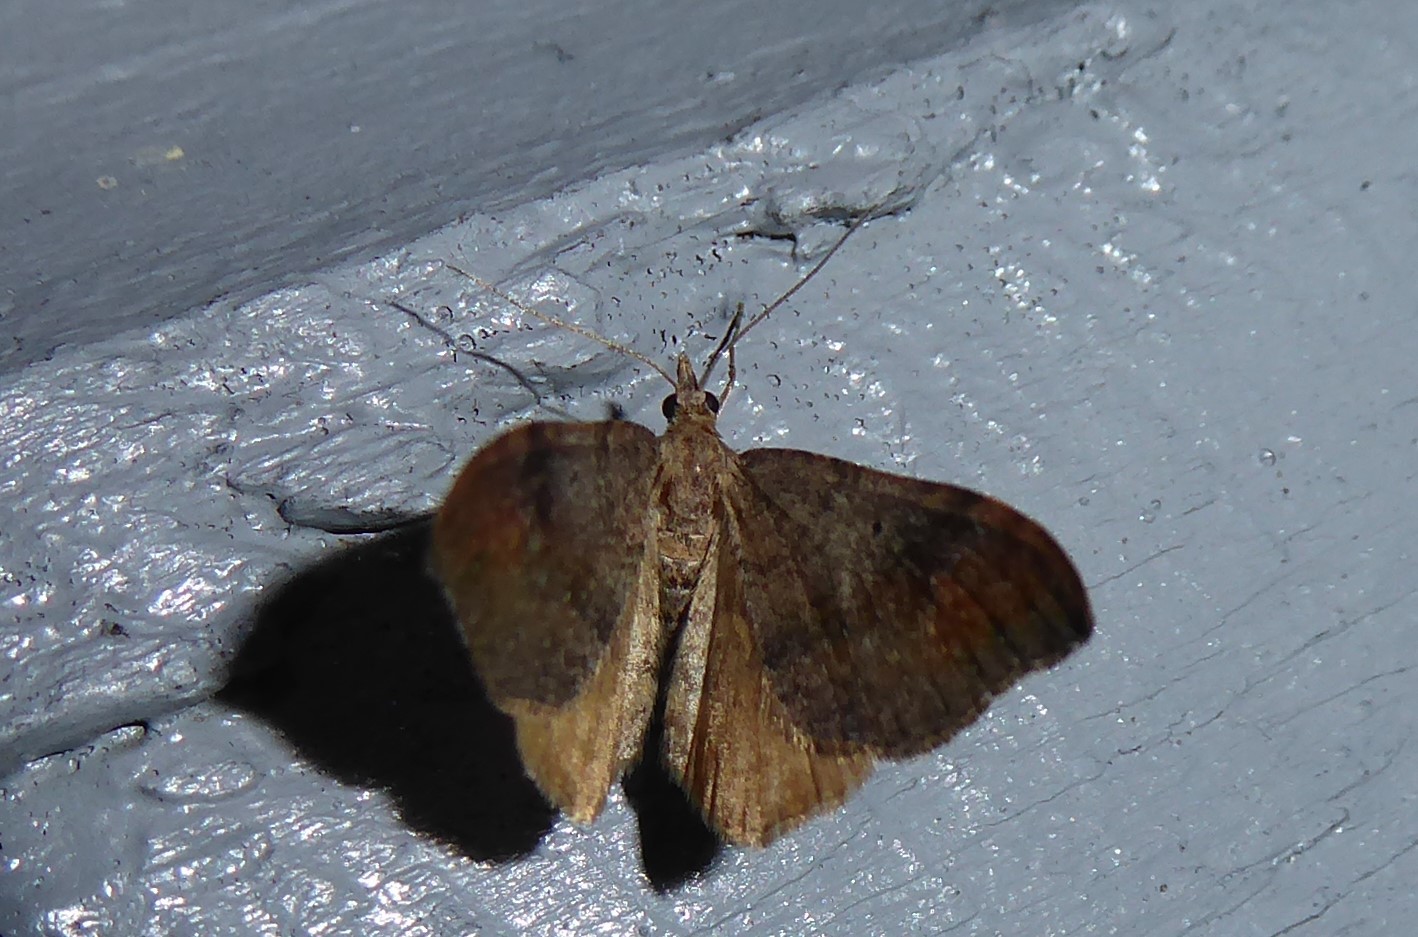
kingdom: Animalia
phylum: Arthropoda
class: Insecta
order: Lepidoptera
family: Geometridae
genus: Homodotis
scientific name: Homodotis megaspilata
